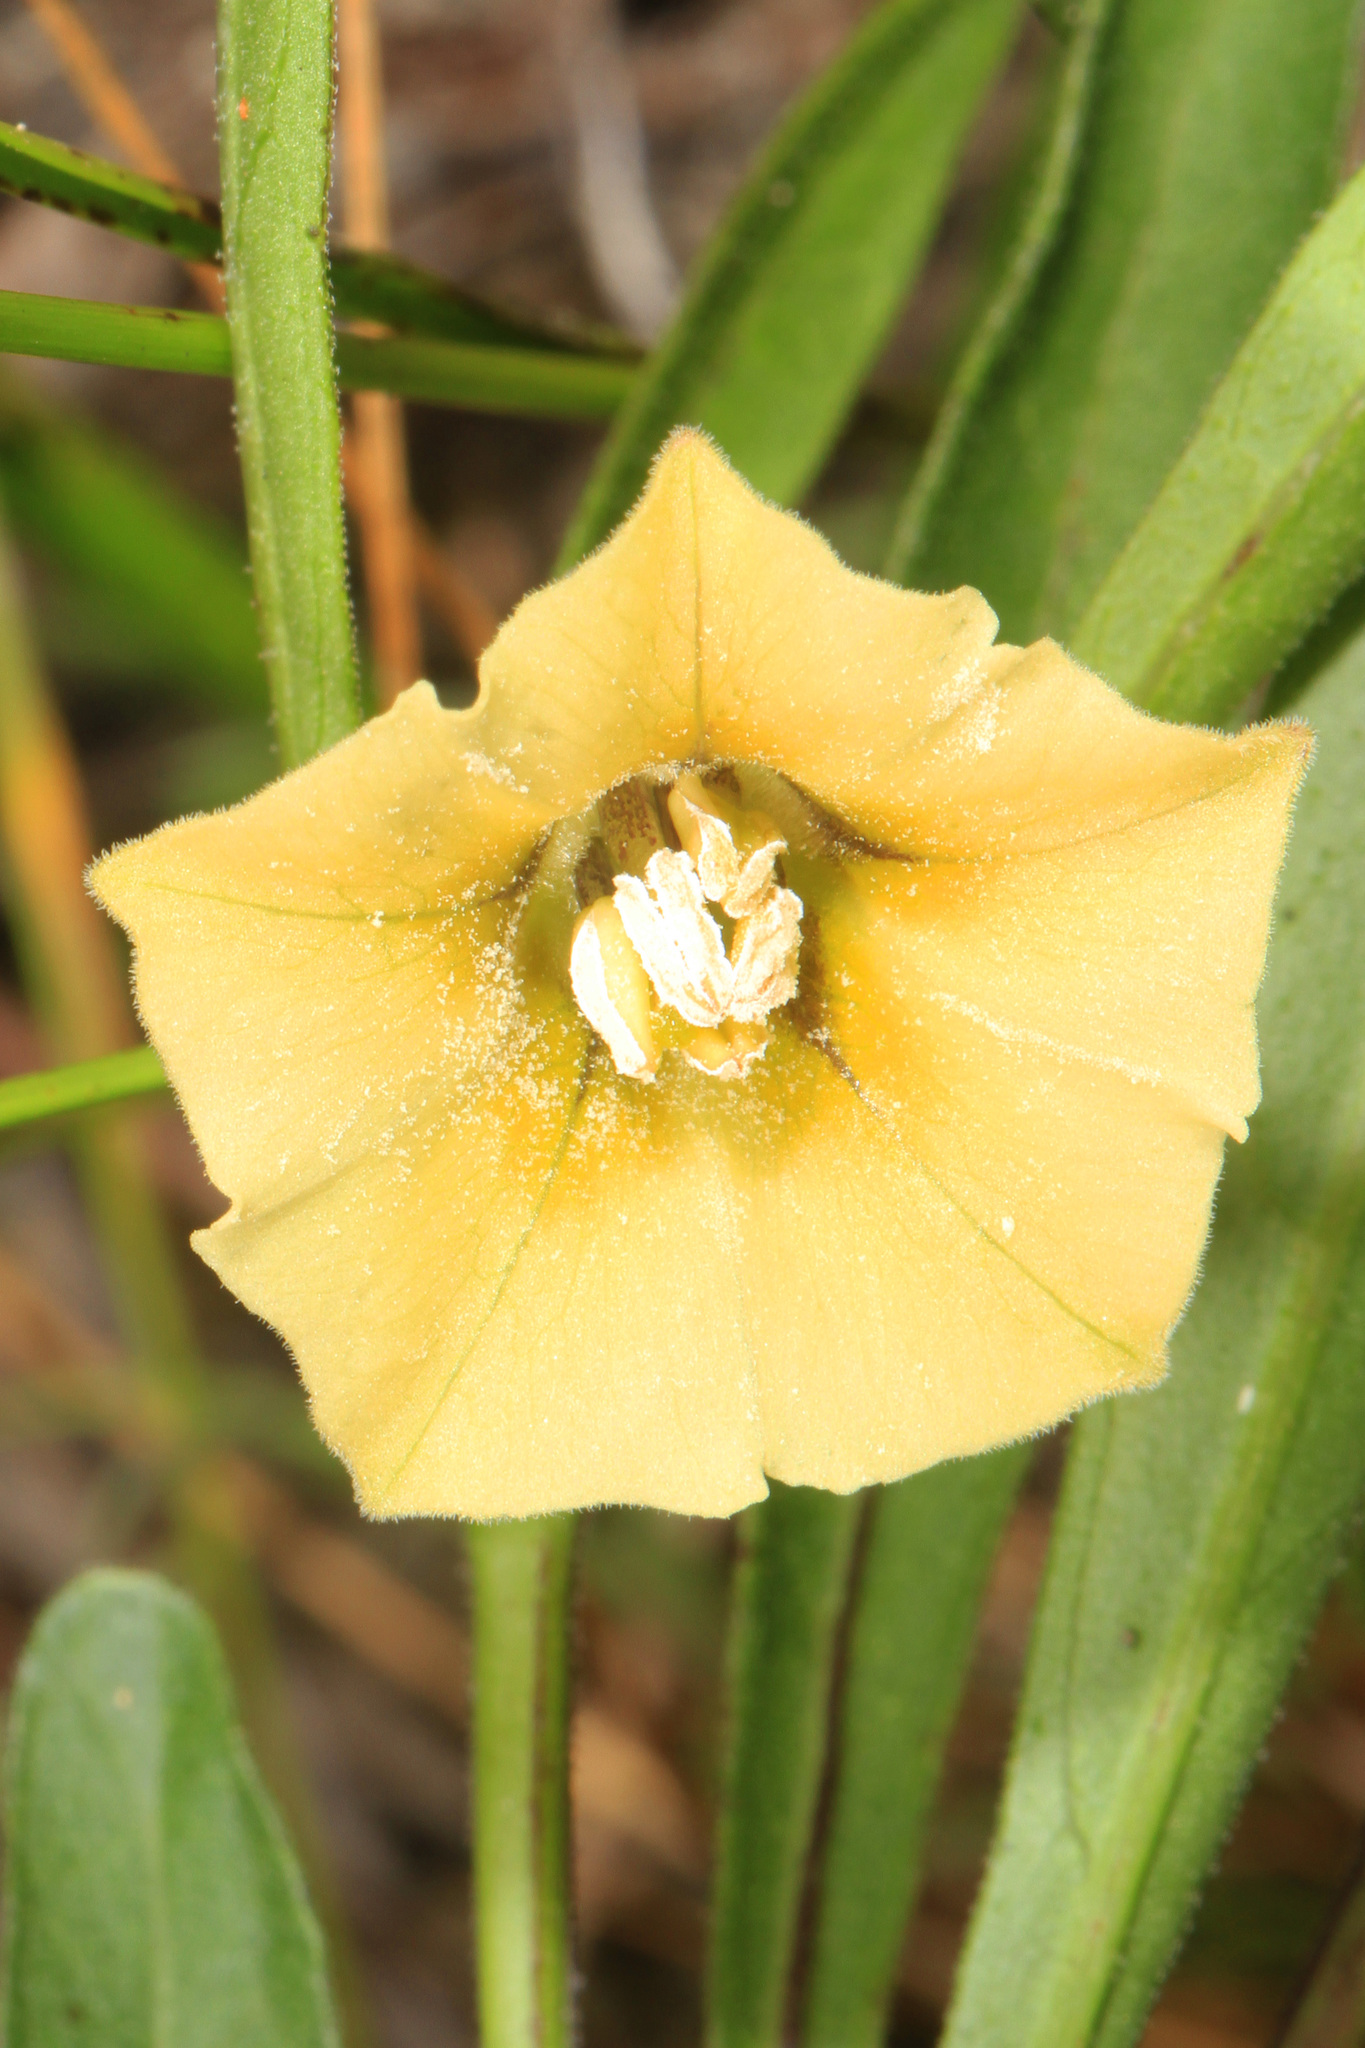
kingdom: Plantae
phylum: Tracheophyta
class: Magnoliopsida
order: Solanales
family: Solanaceae
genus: Physalis
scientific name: Physalis angustifolia
